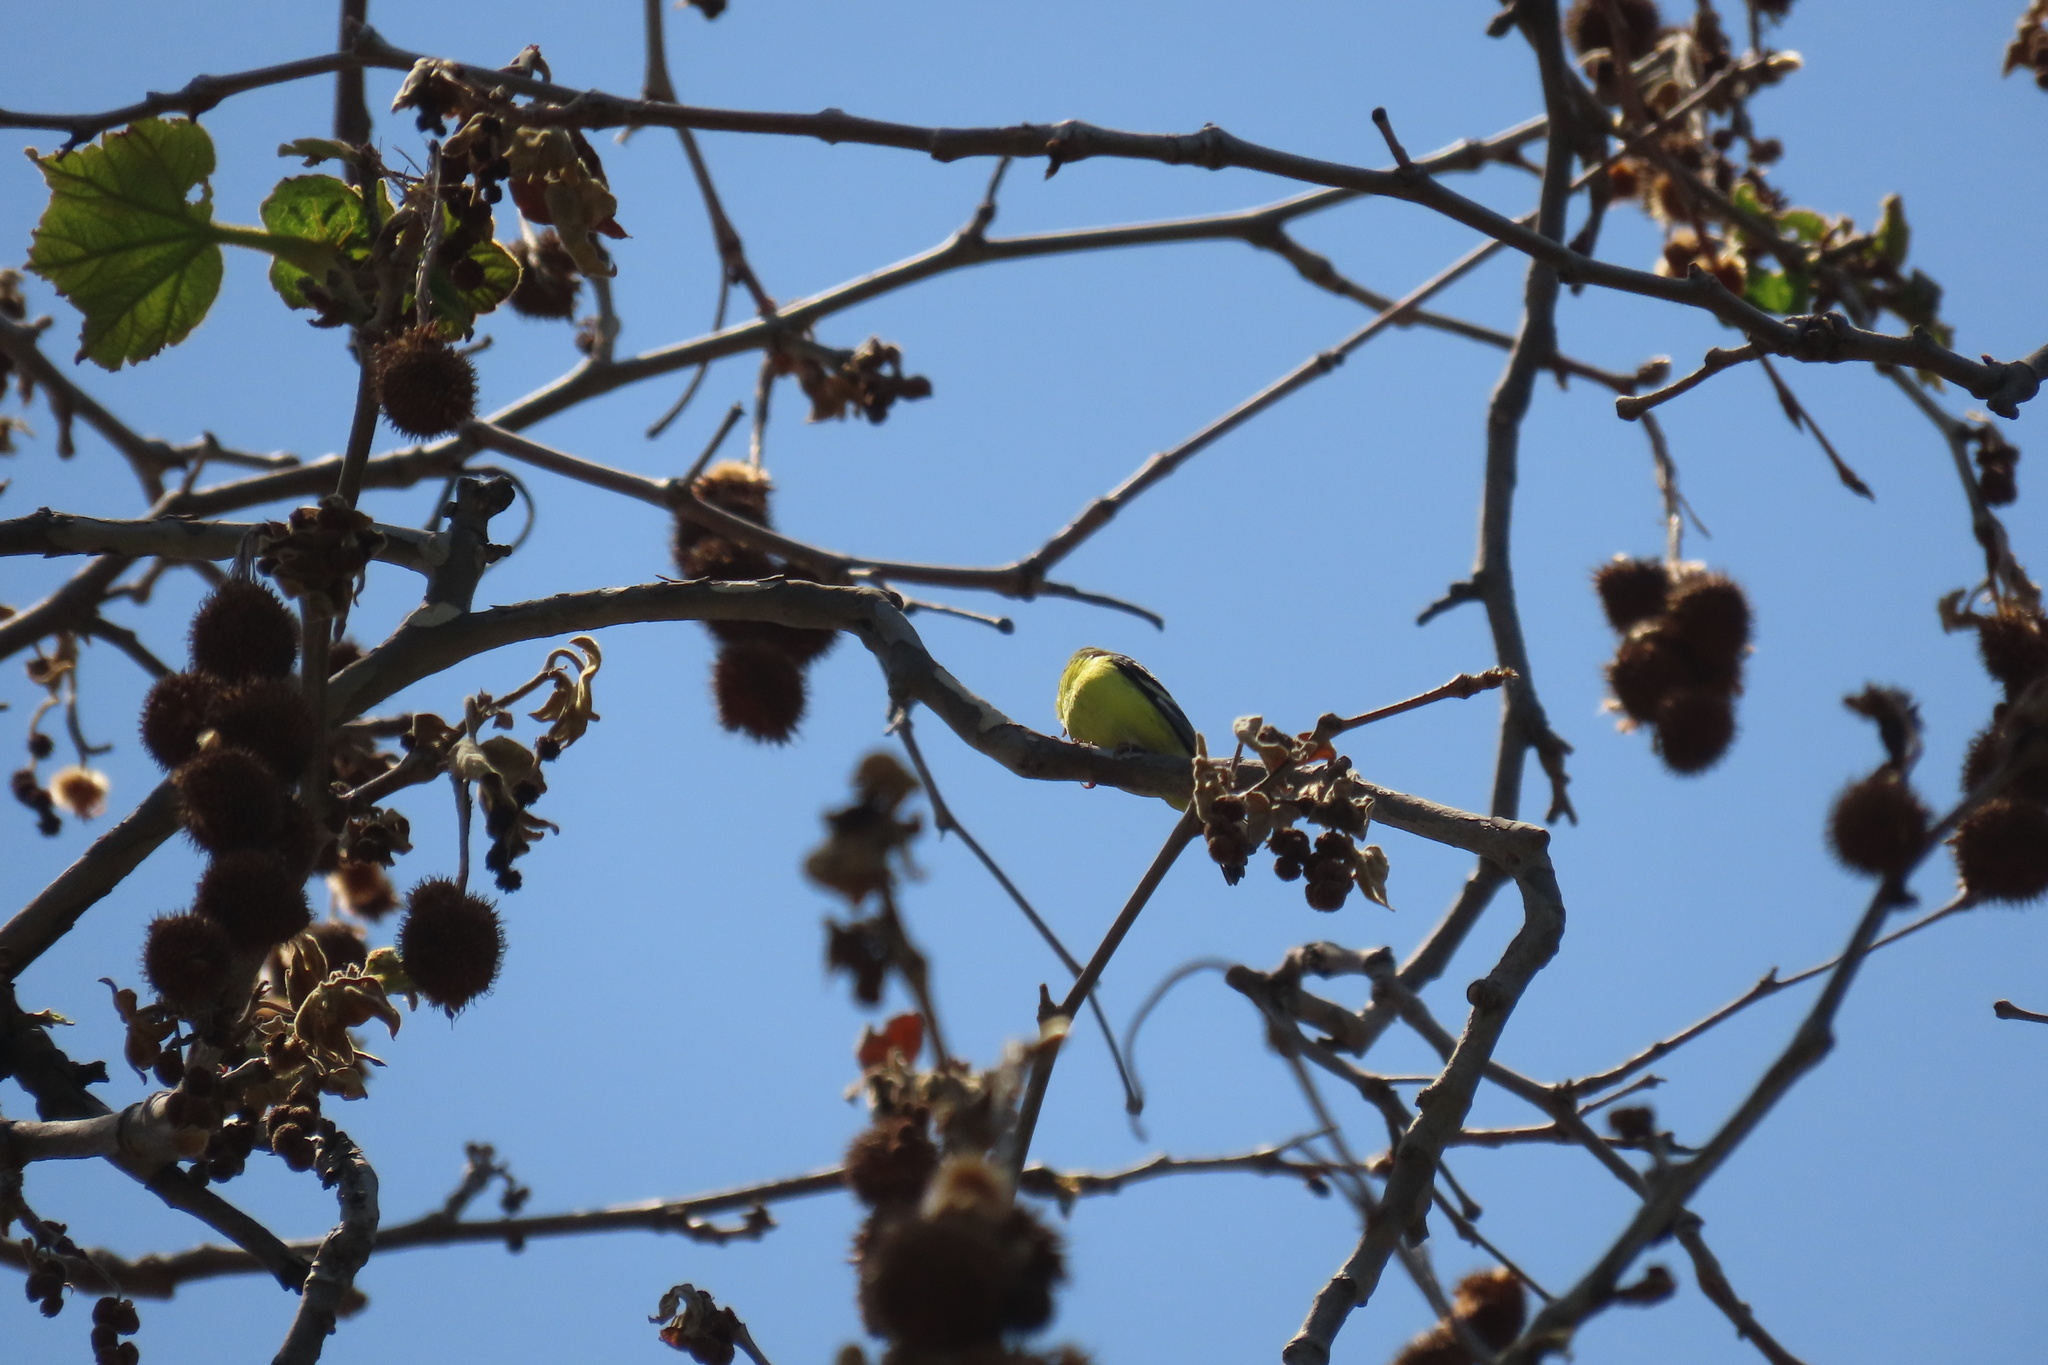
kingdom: Animalia
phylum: Chordata
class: Aves
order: Passeriformes
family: Cardinalidae
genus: Piranga
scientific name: Piranga ludoviciana
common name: Western tanager
